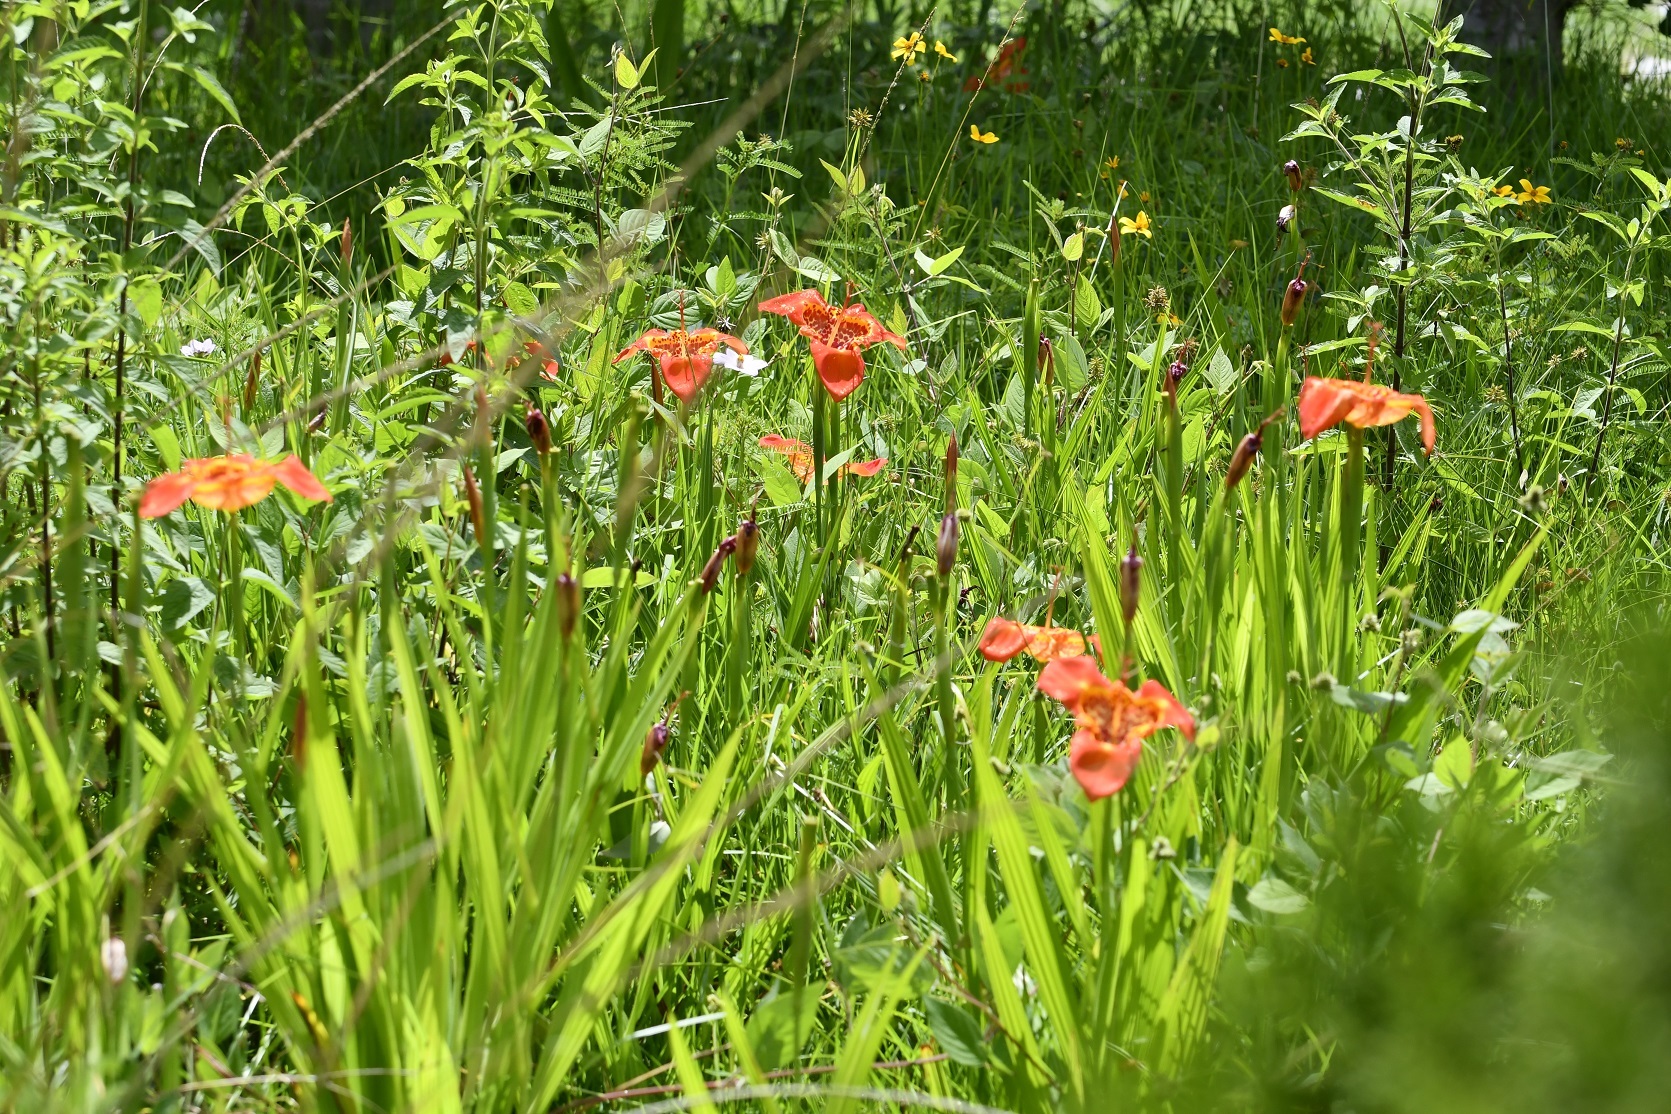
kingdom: Plantae
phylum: Tracheophyta
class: Liliopsida
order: Asparagales
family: Iridaceae
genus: Tigridia
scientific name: Tigridia pavonia
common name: Peacock-flower
